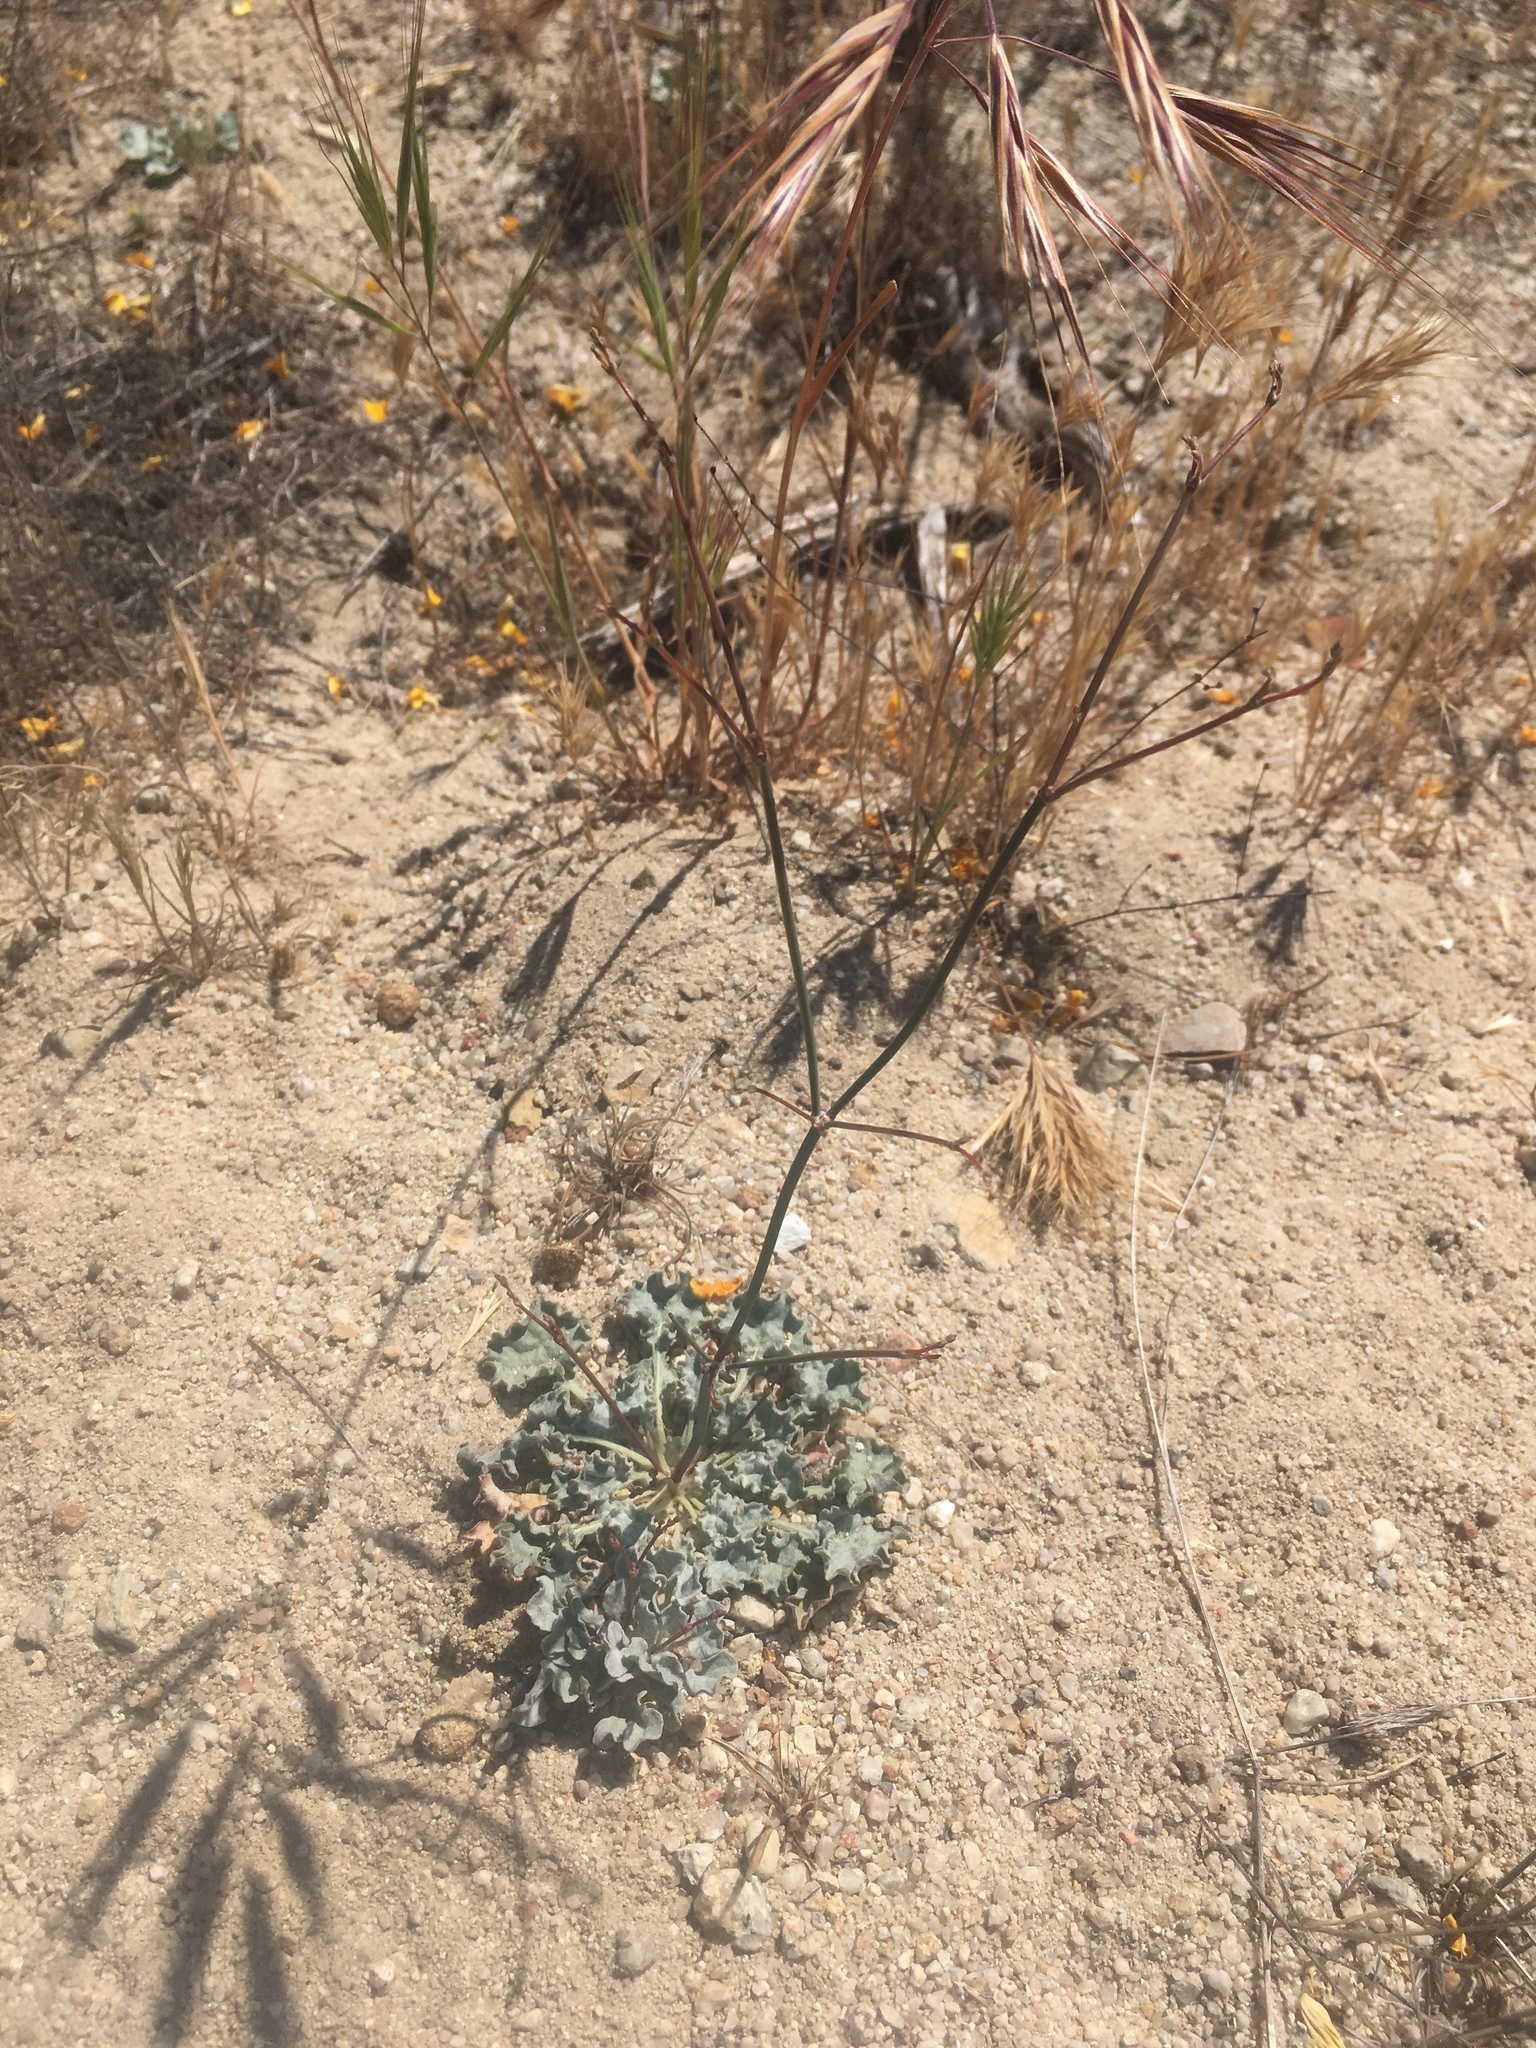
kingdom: Plantae
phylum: Tracheophyta
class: Magnoliopsida
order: Caryophyllales
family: Polygonaceae
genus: Eriogonum
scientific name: Eriogonum elegans
